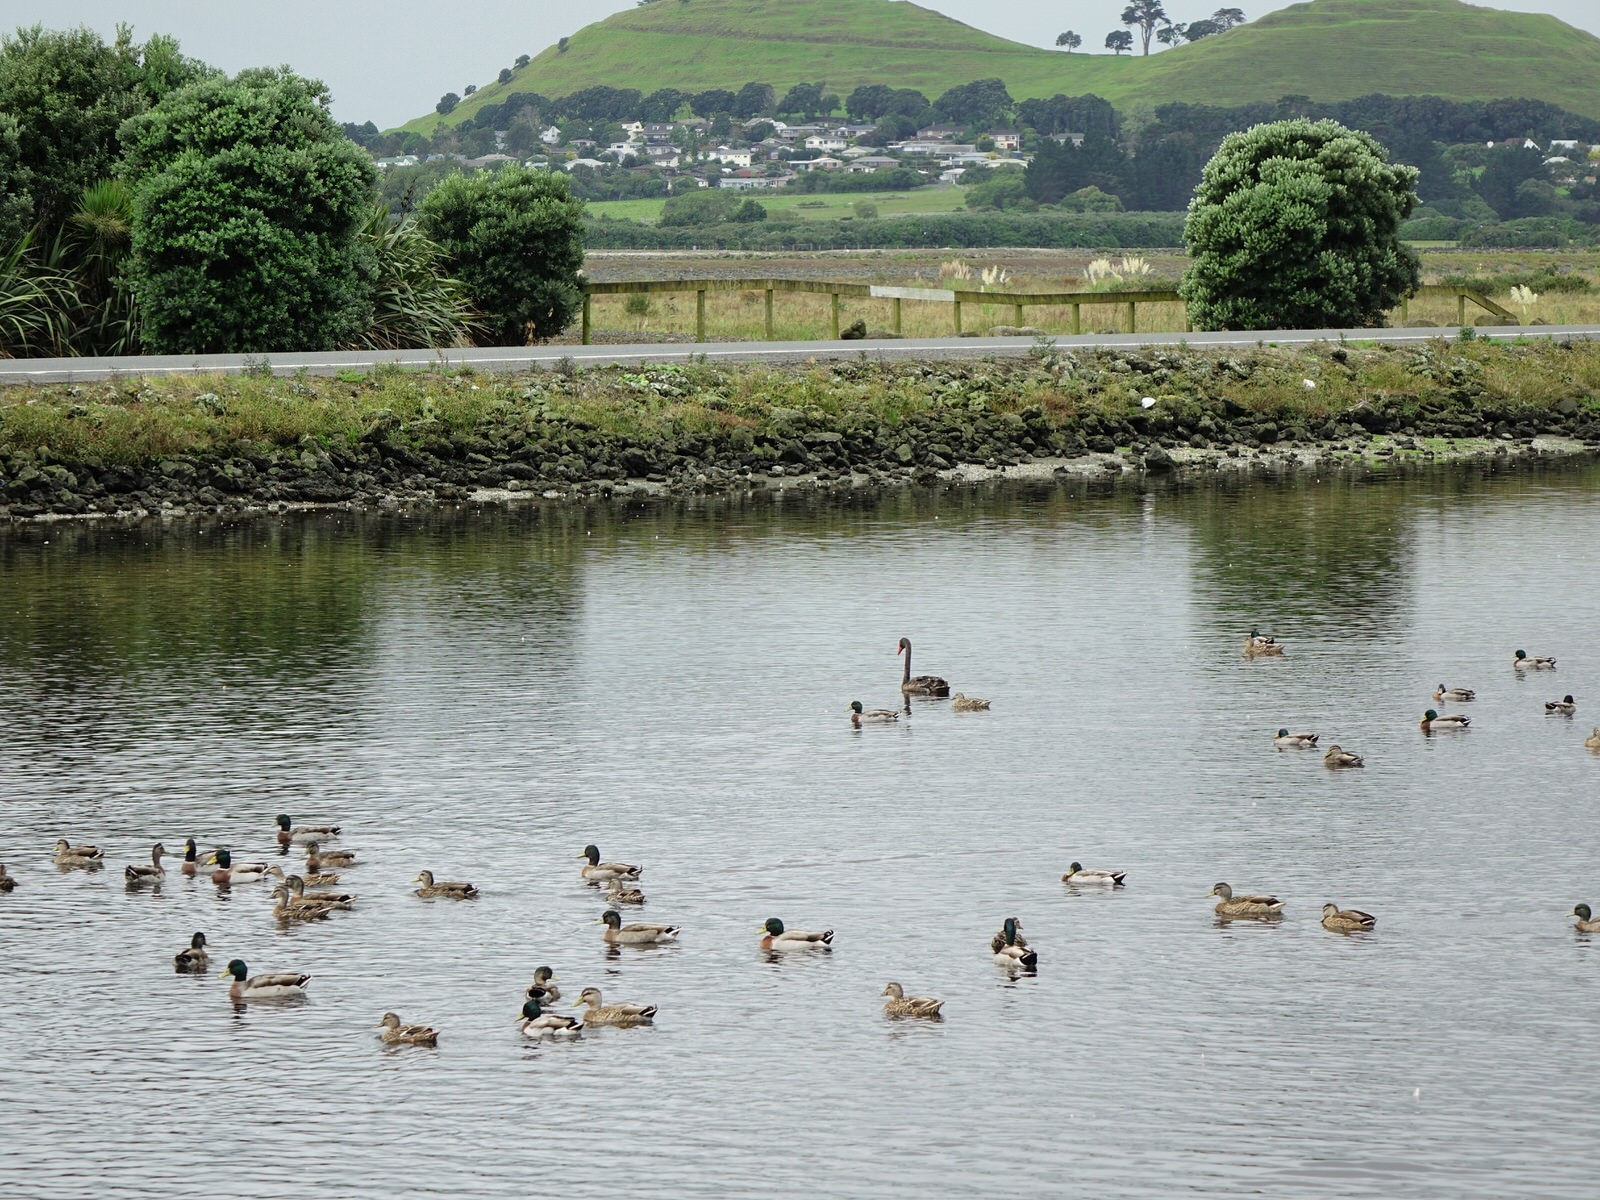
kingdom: Animalia
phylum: Chordata
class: Aves
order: Anseriformes
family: Anatidae
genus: Anas
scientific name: Anas platyrhynchos
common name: Mallard
